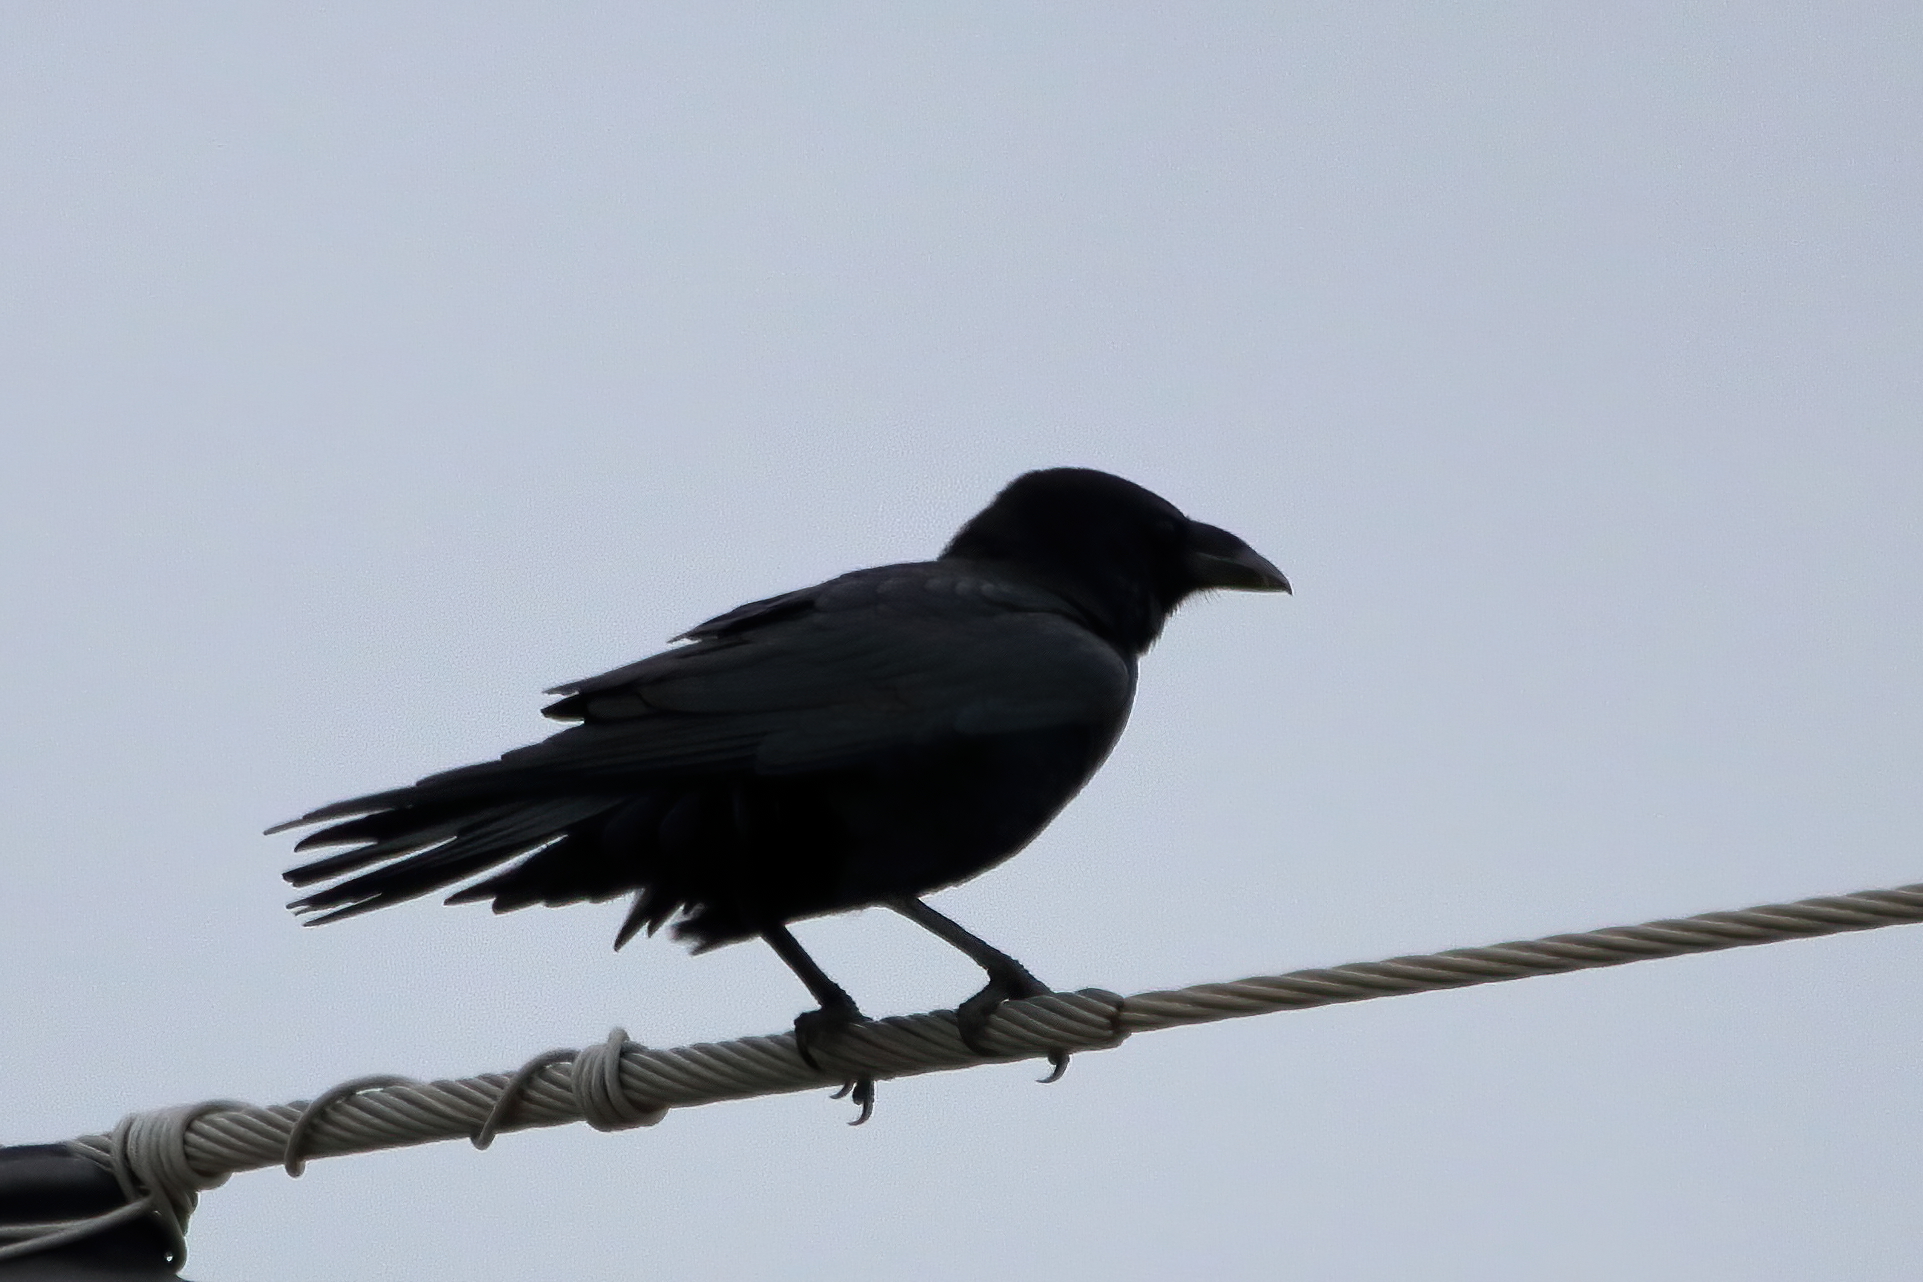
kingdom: Animalia
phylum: Chordata
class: Aves
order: Passeriformes
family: Corvidae
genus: Corvus
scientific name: Corvus cryptoleucus
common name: Chihuahuan raven
